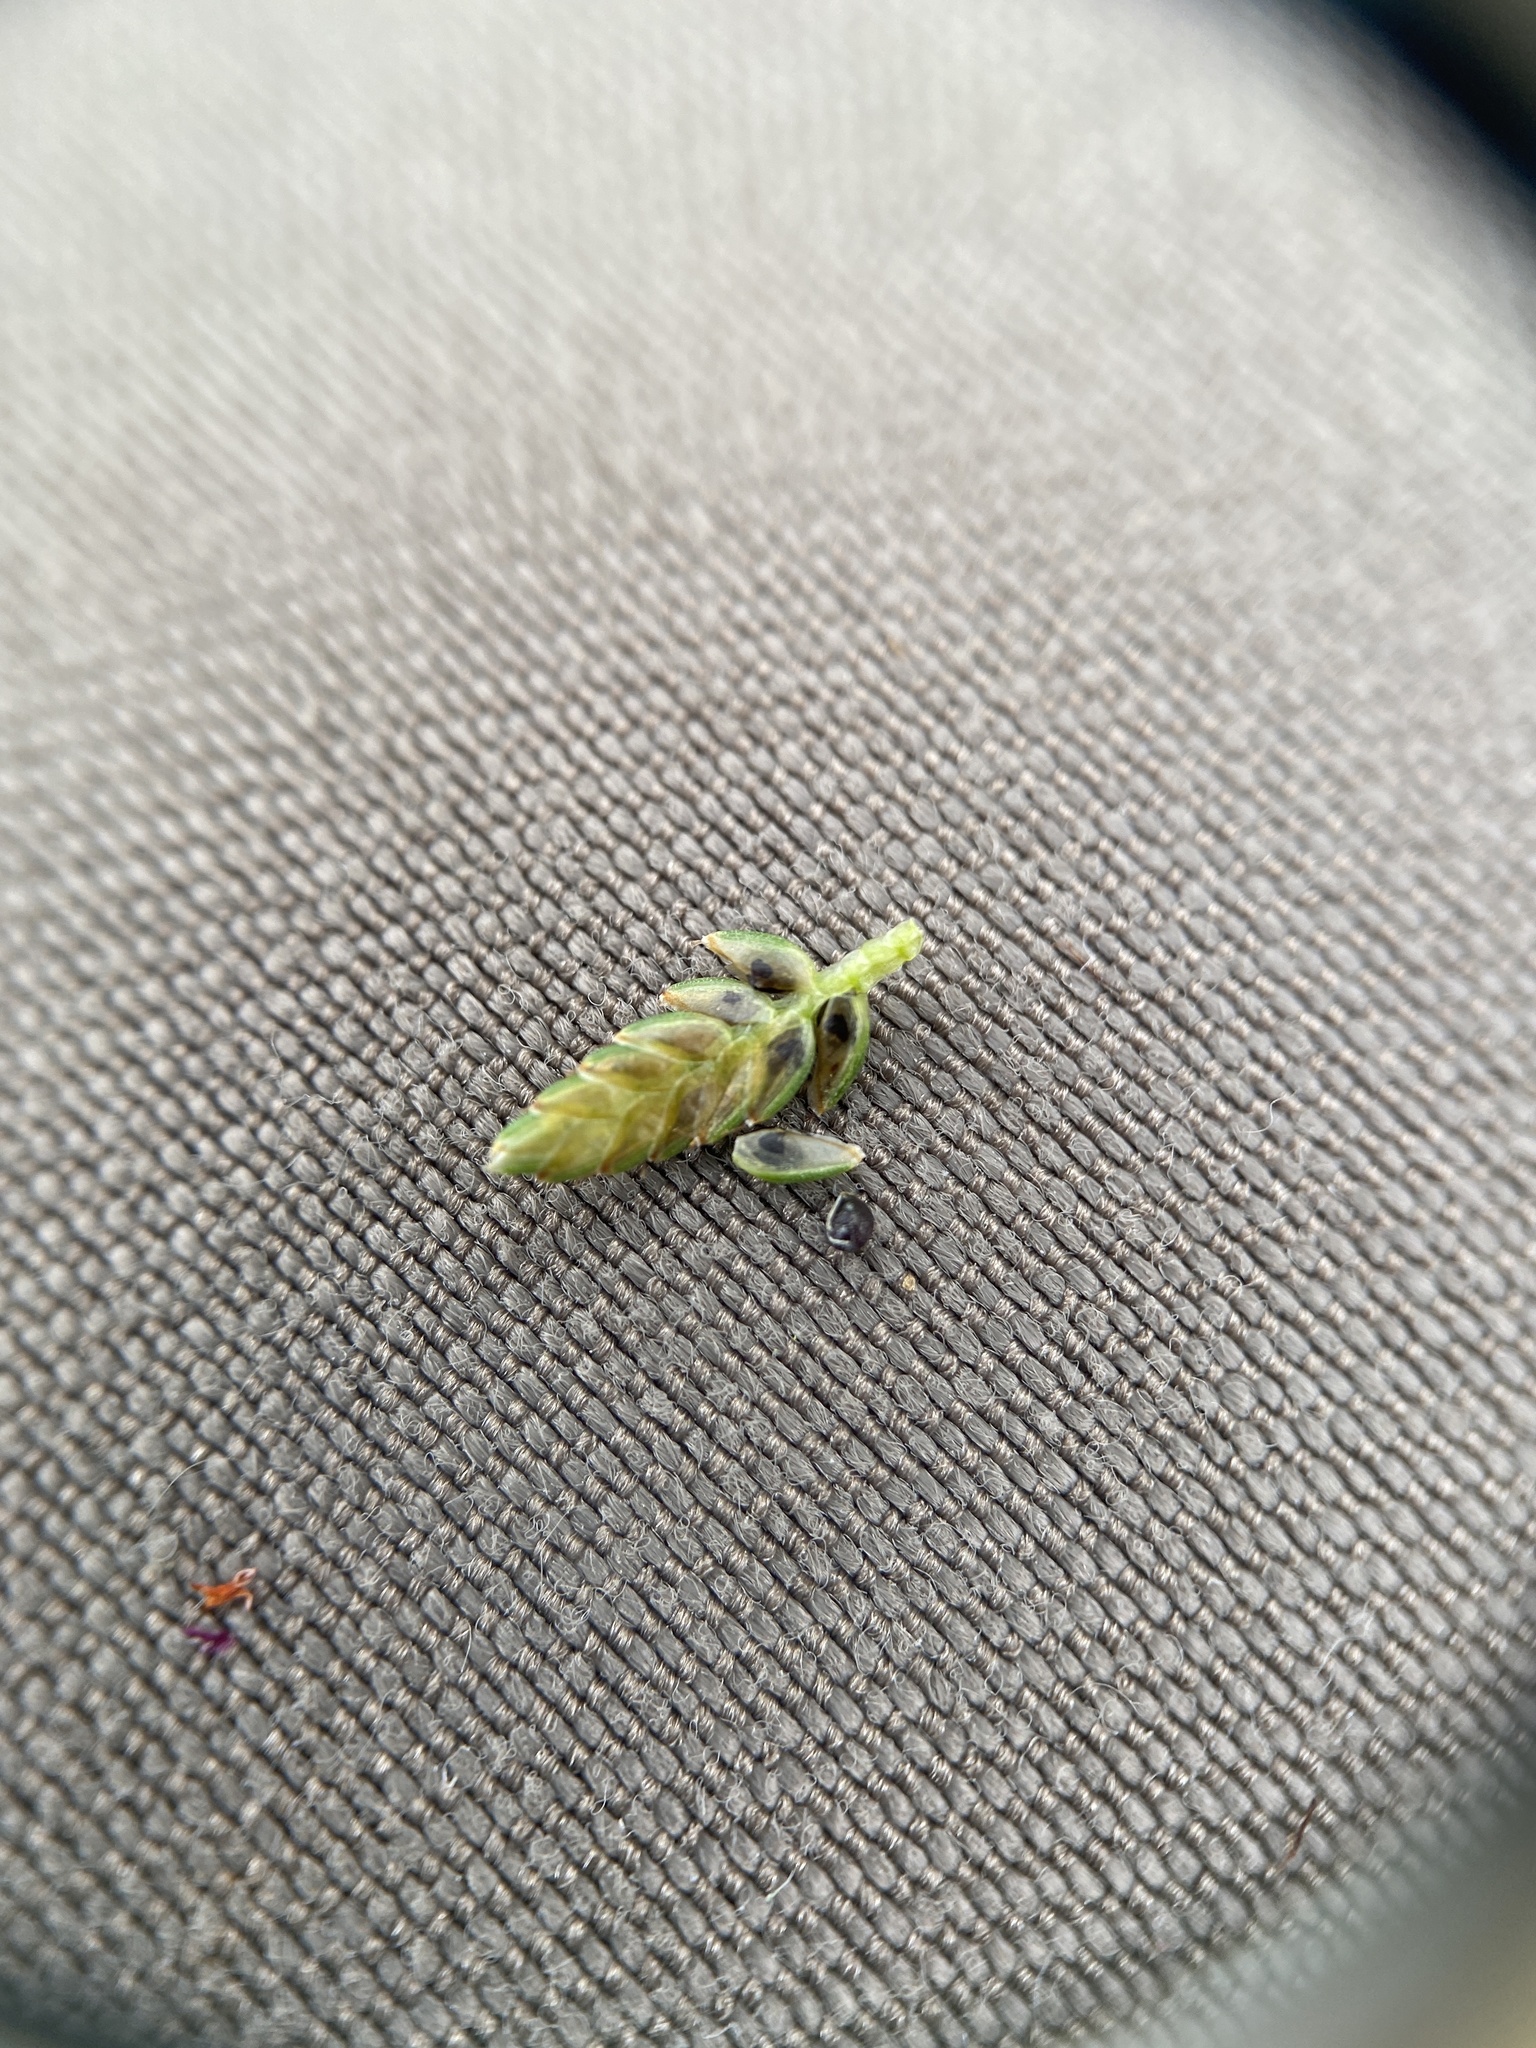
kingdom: Plantae
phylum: Tracheophyta
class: Liliopsida
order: Poales
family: Cyperaceae
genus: Cyperus
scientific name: Cyperus flavescens
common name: Yellow galingale
